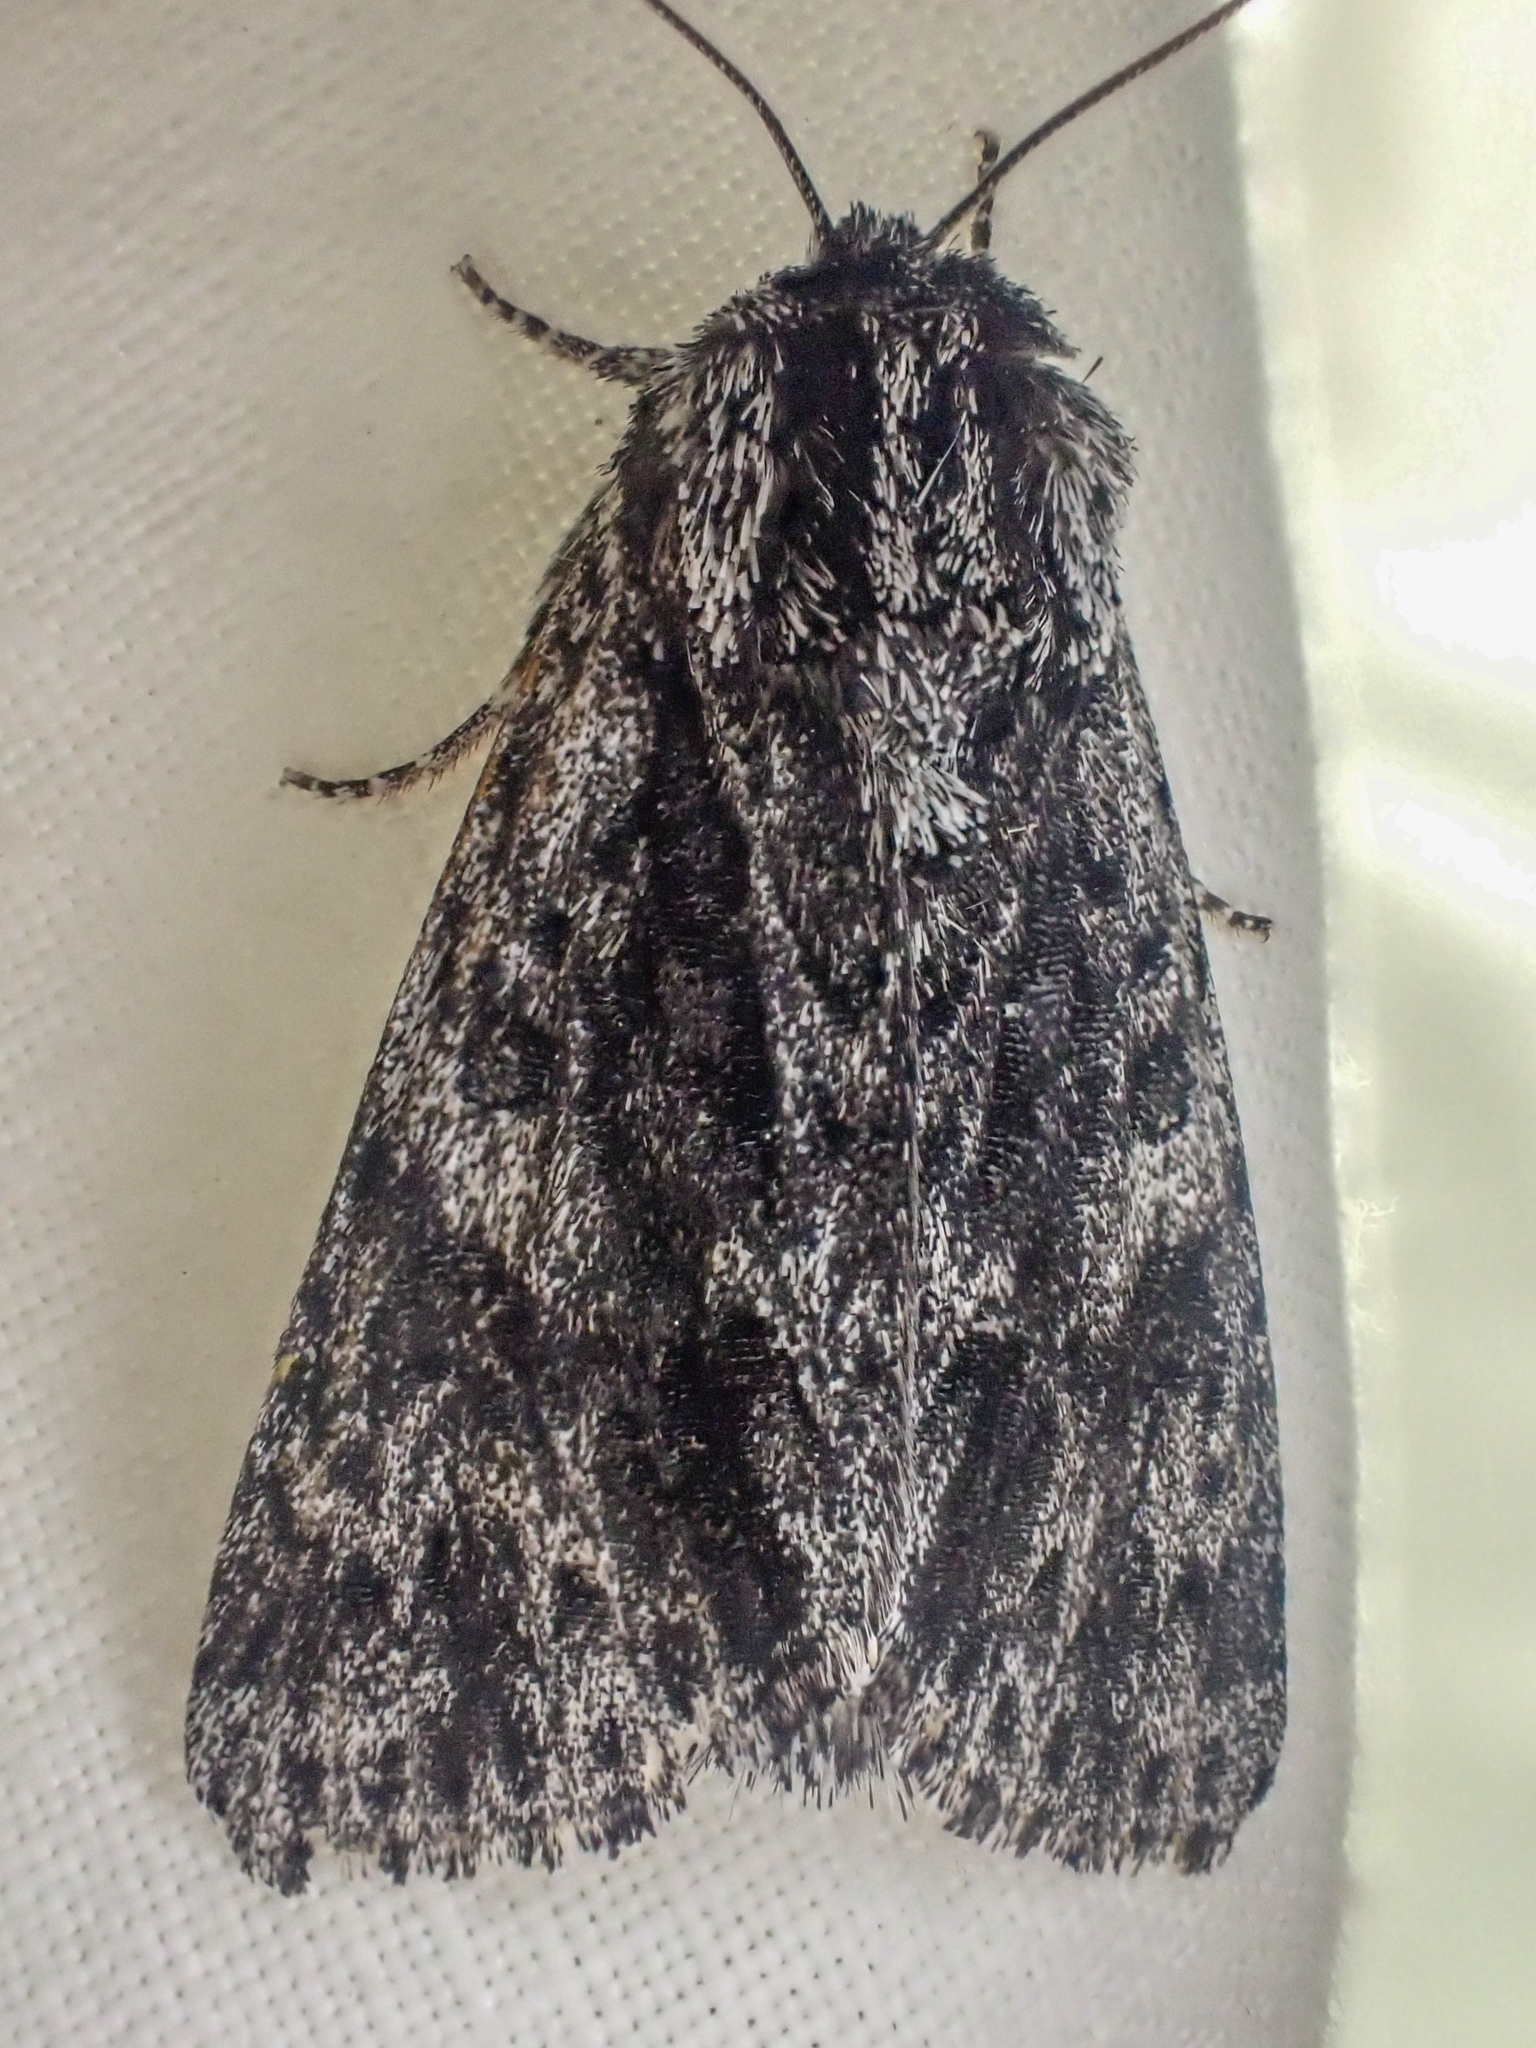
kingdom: Animalia
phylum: Arthropoda
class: Insecta
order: Lepidoptera
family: Noctuidae
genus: Acronicta
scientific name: Acronicta perdita
